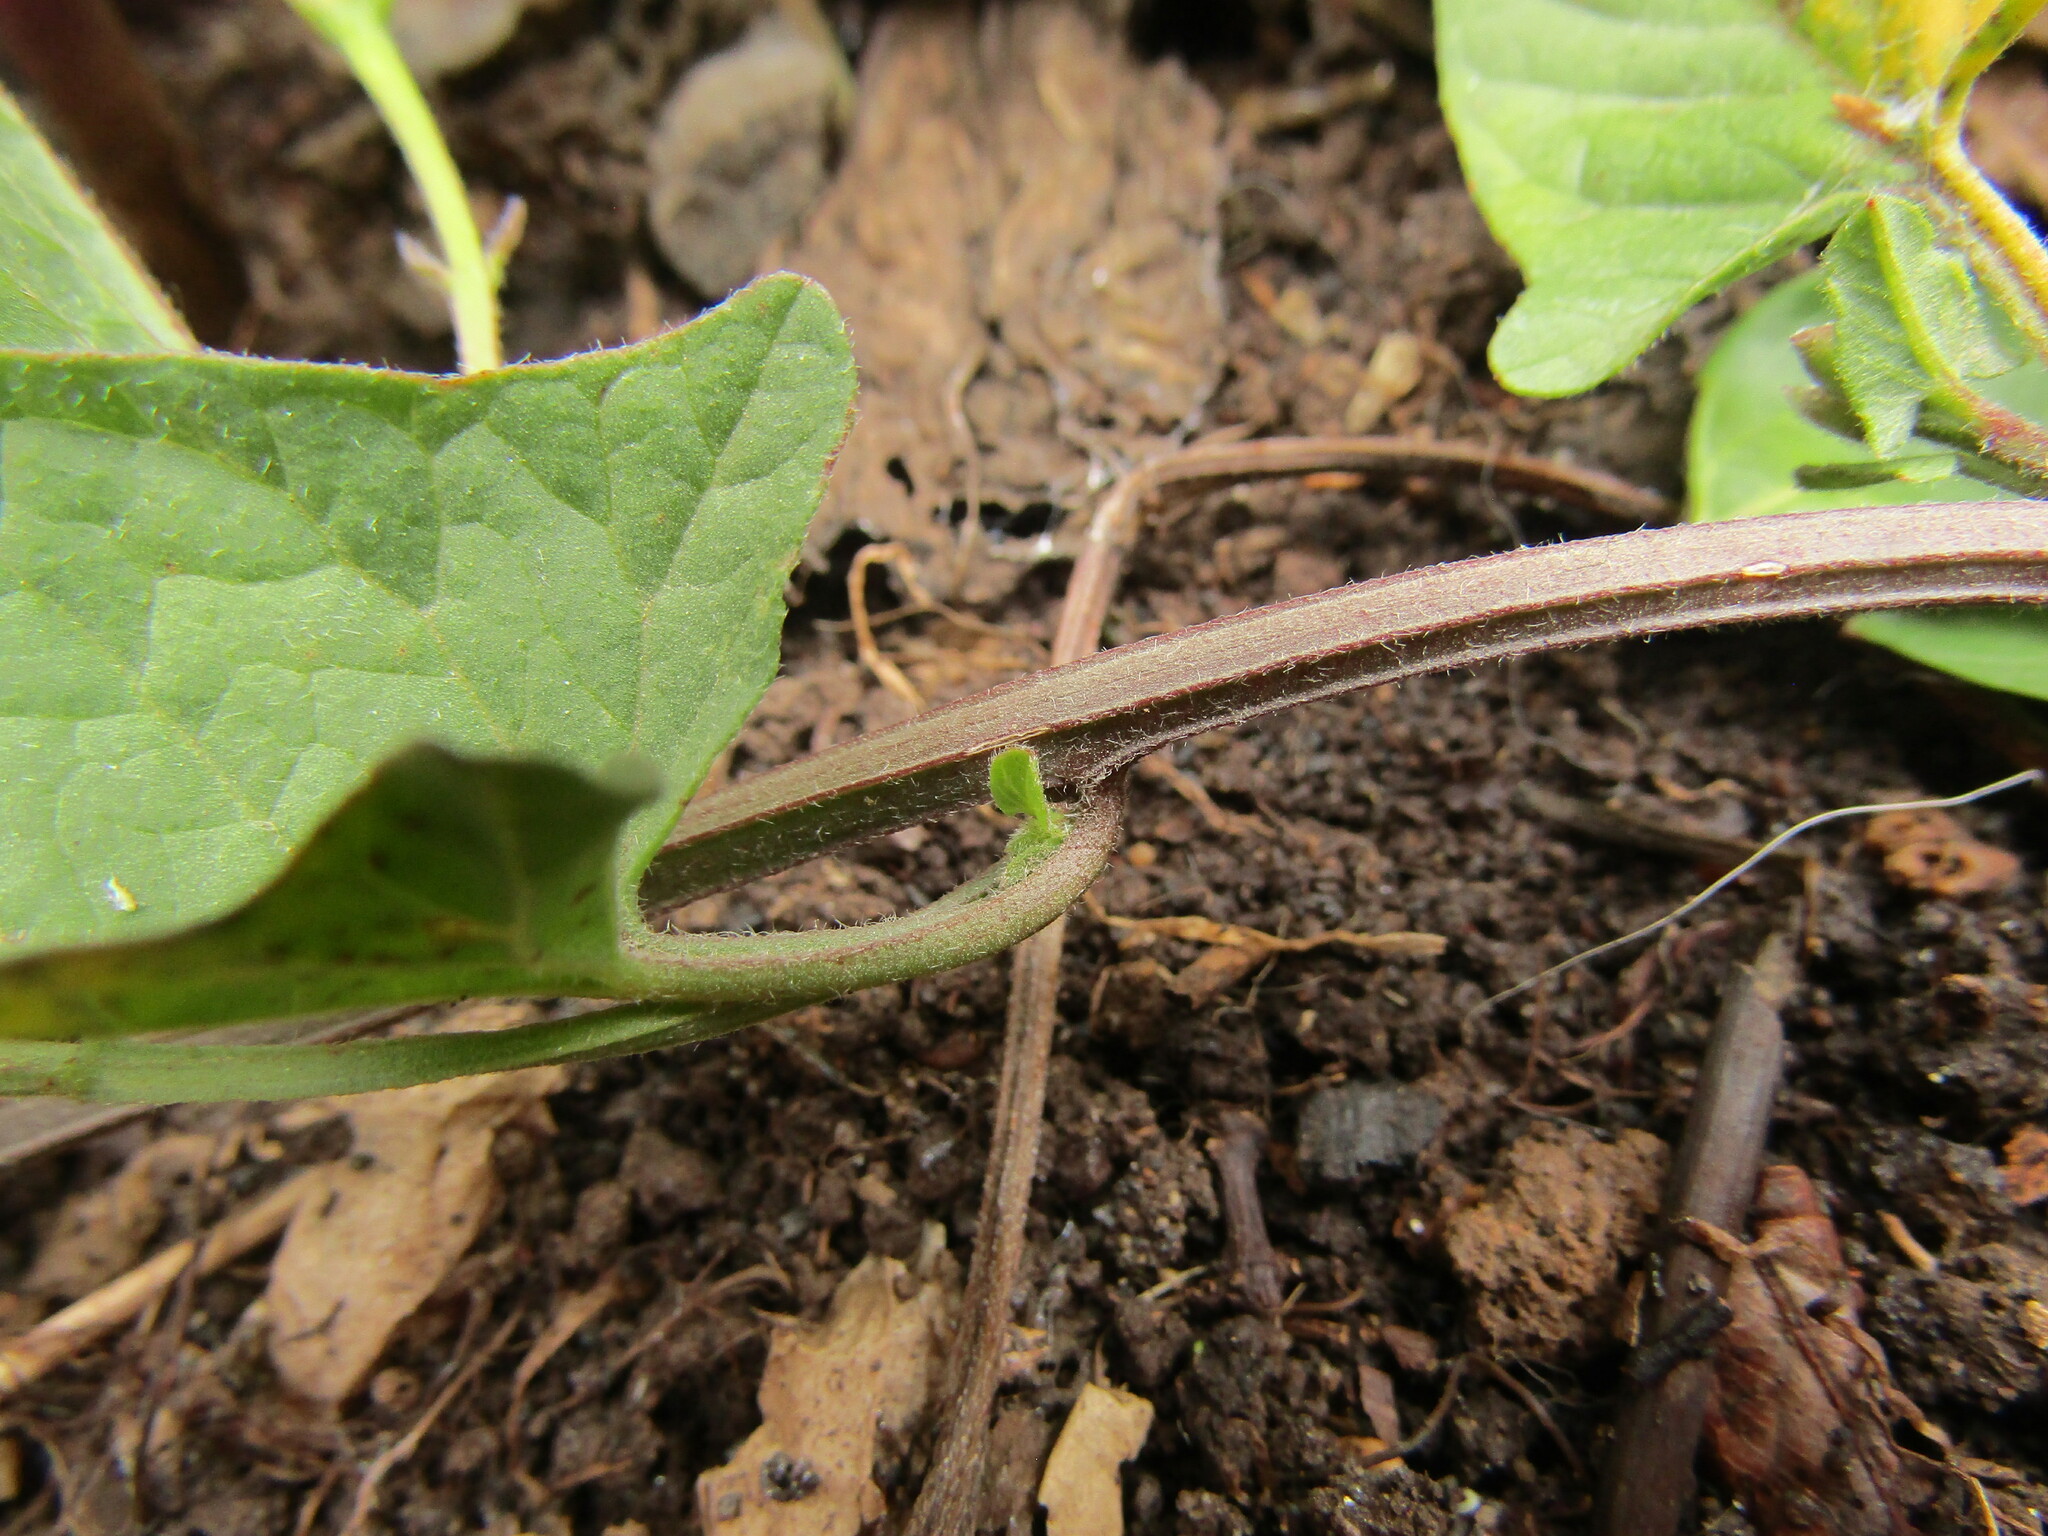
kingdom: Plantae
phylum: Tracheophyta
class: Magnoliopsida
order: Solanales
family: Convolvulaceae
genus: Convolvulus
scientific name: Convolvulus arvensis
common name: Field bindweed
